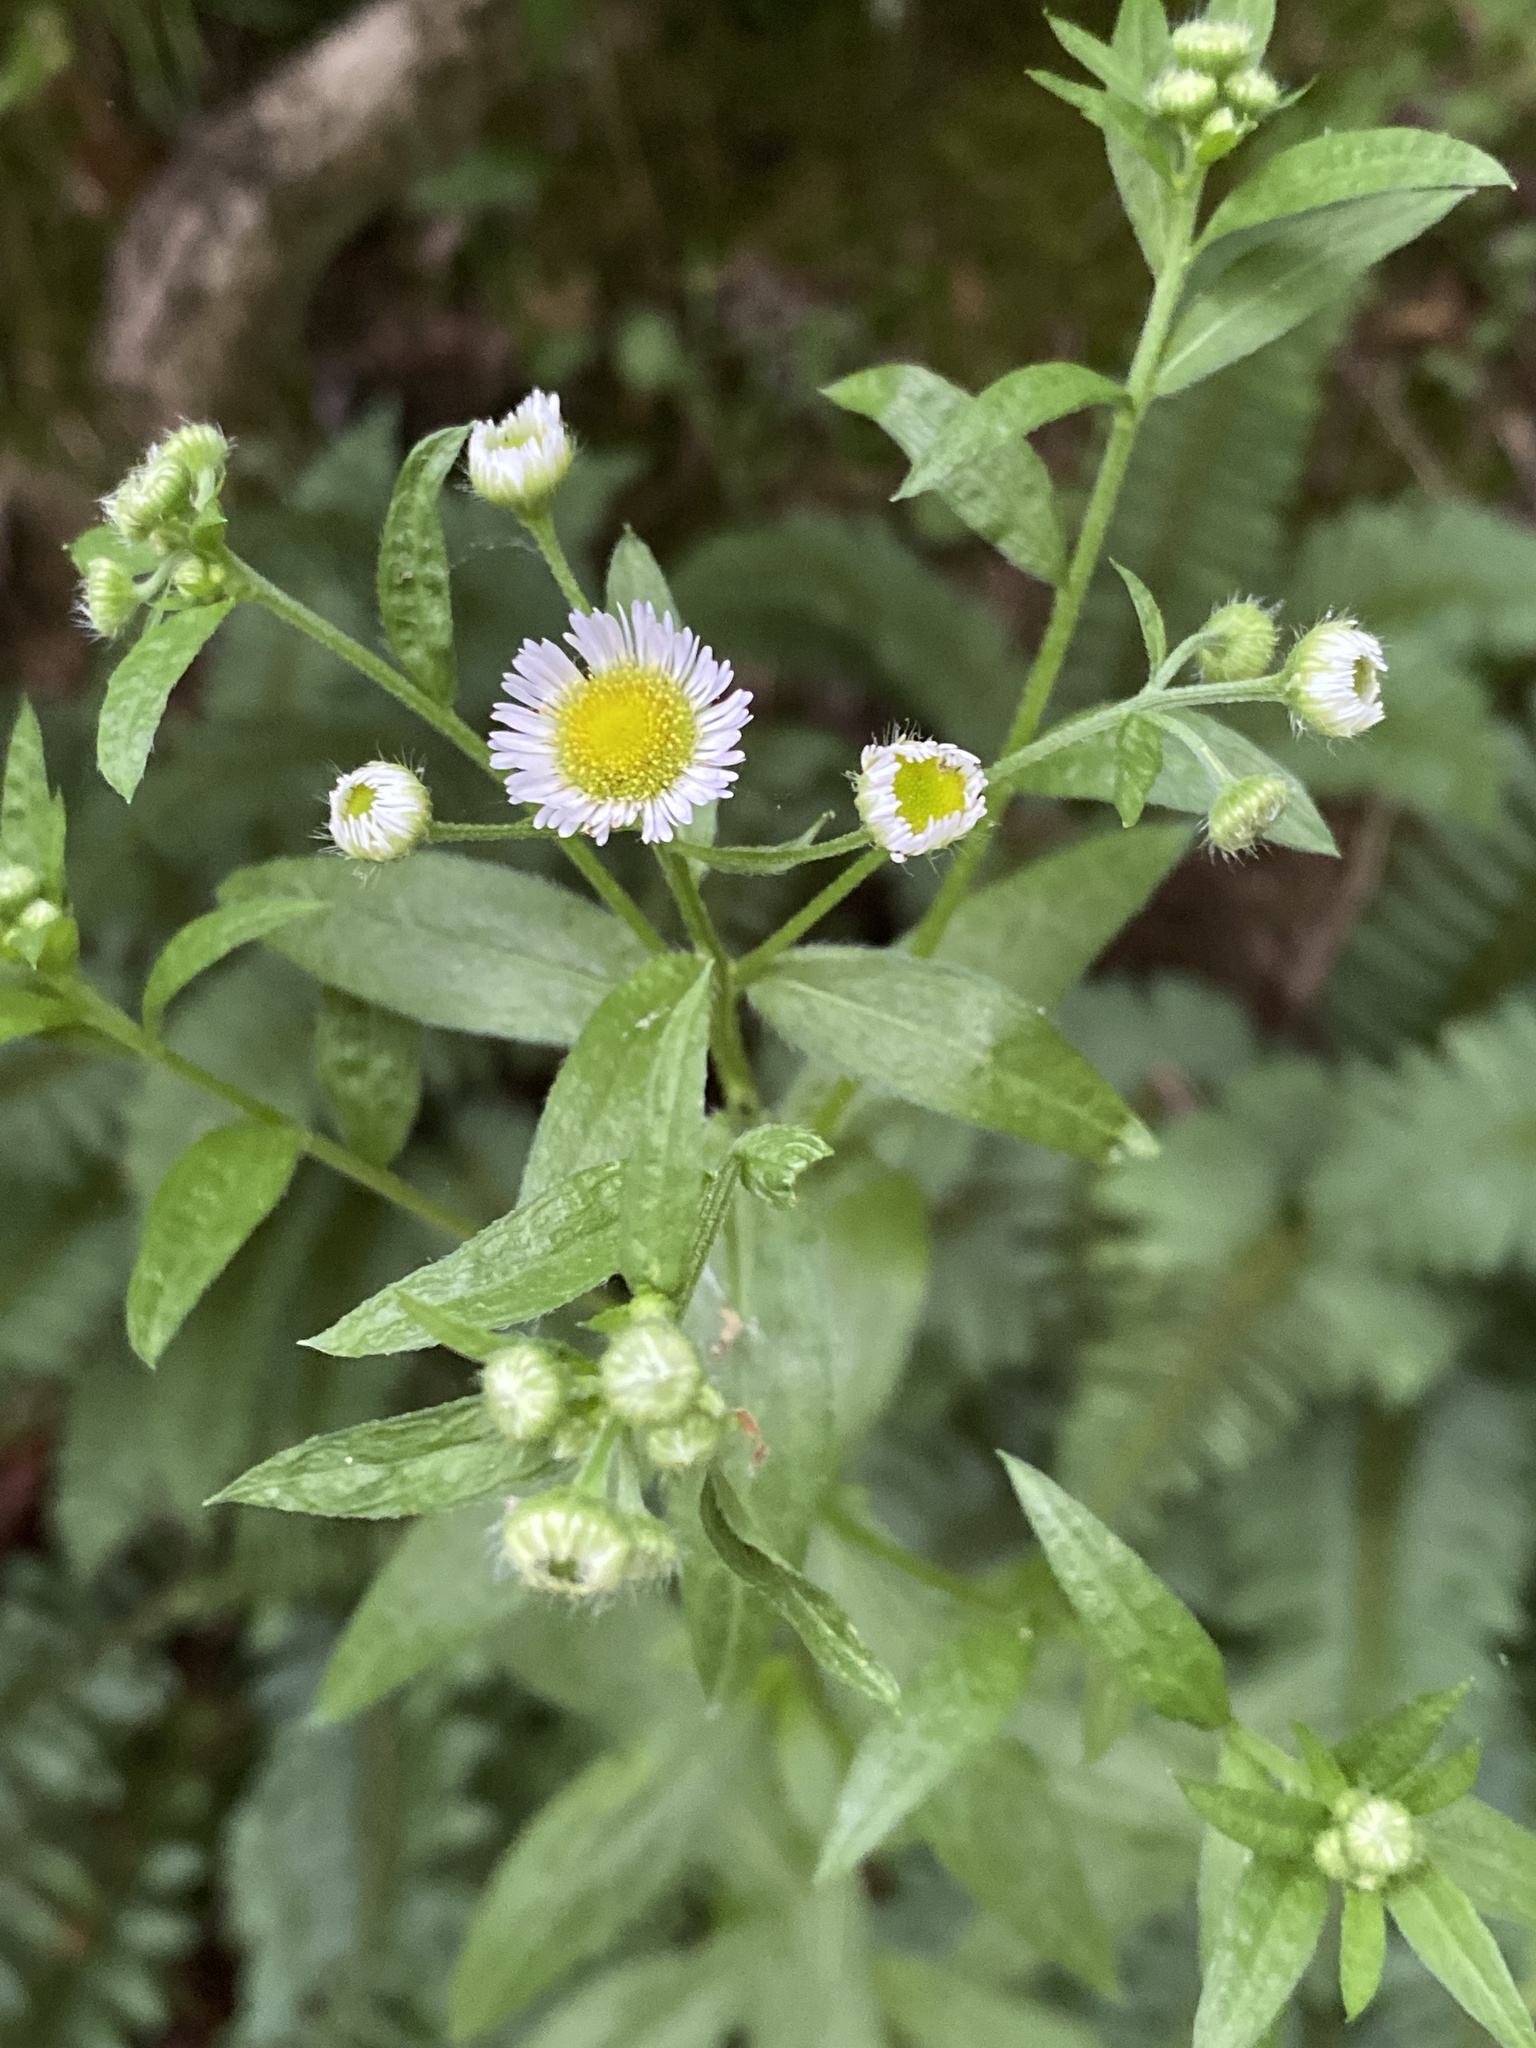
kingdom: Plantae
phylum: Tracheophyta
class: Magnoliopsida
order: Asterales
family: Asteraceae
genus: Erigeron
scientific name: Erigeron annuus
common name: Tall fleabane
